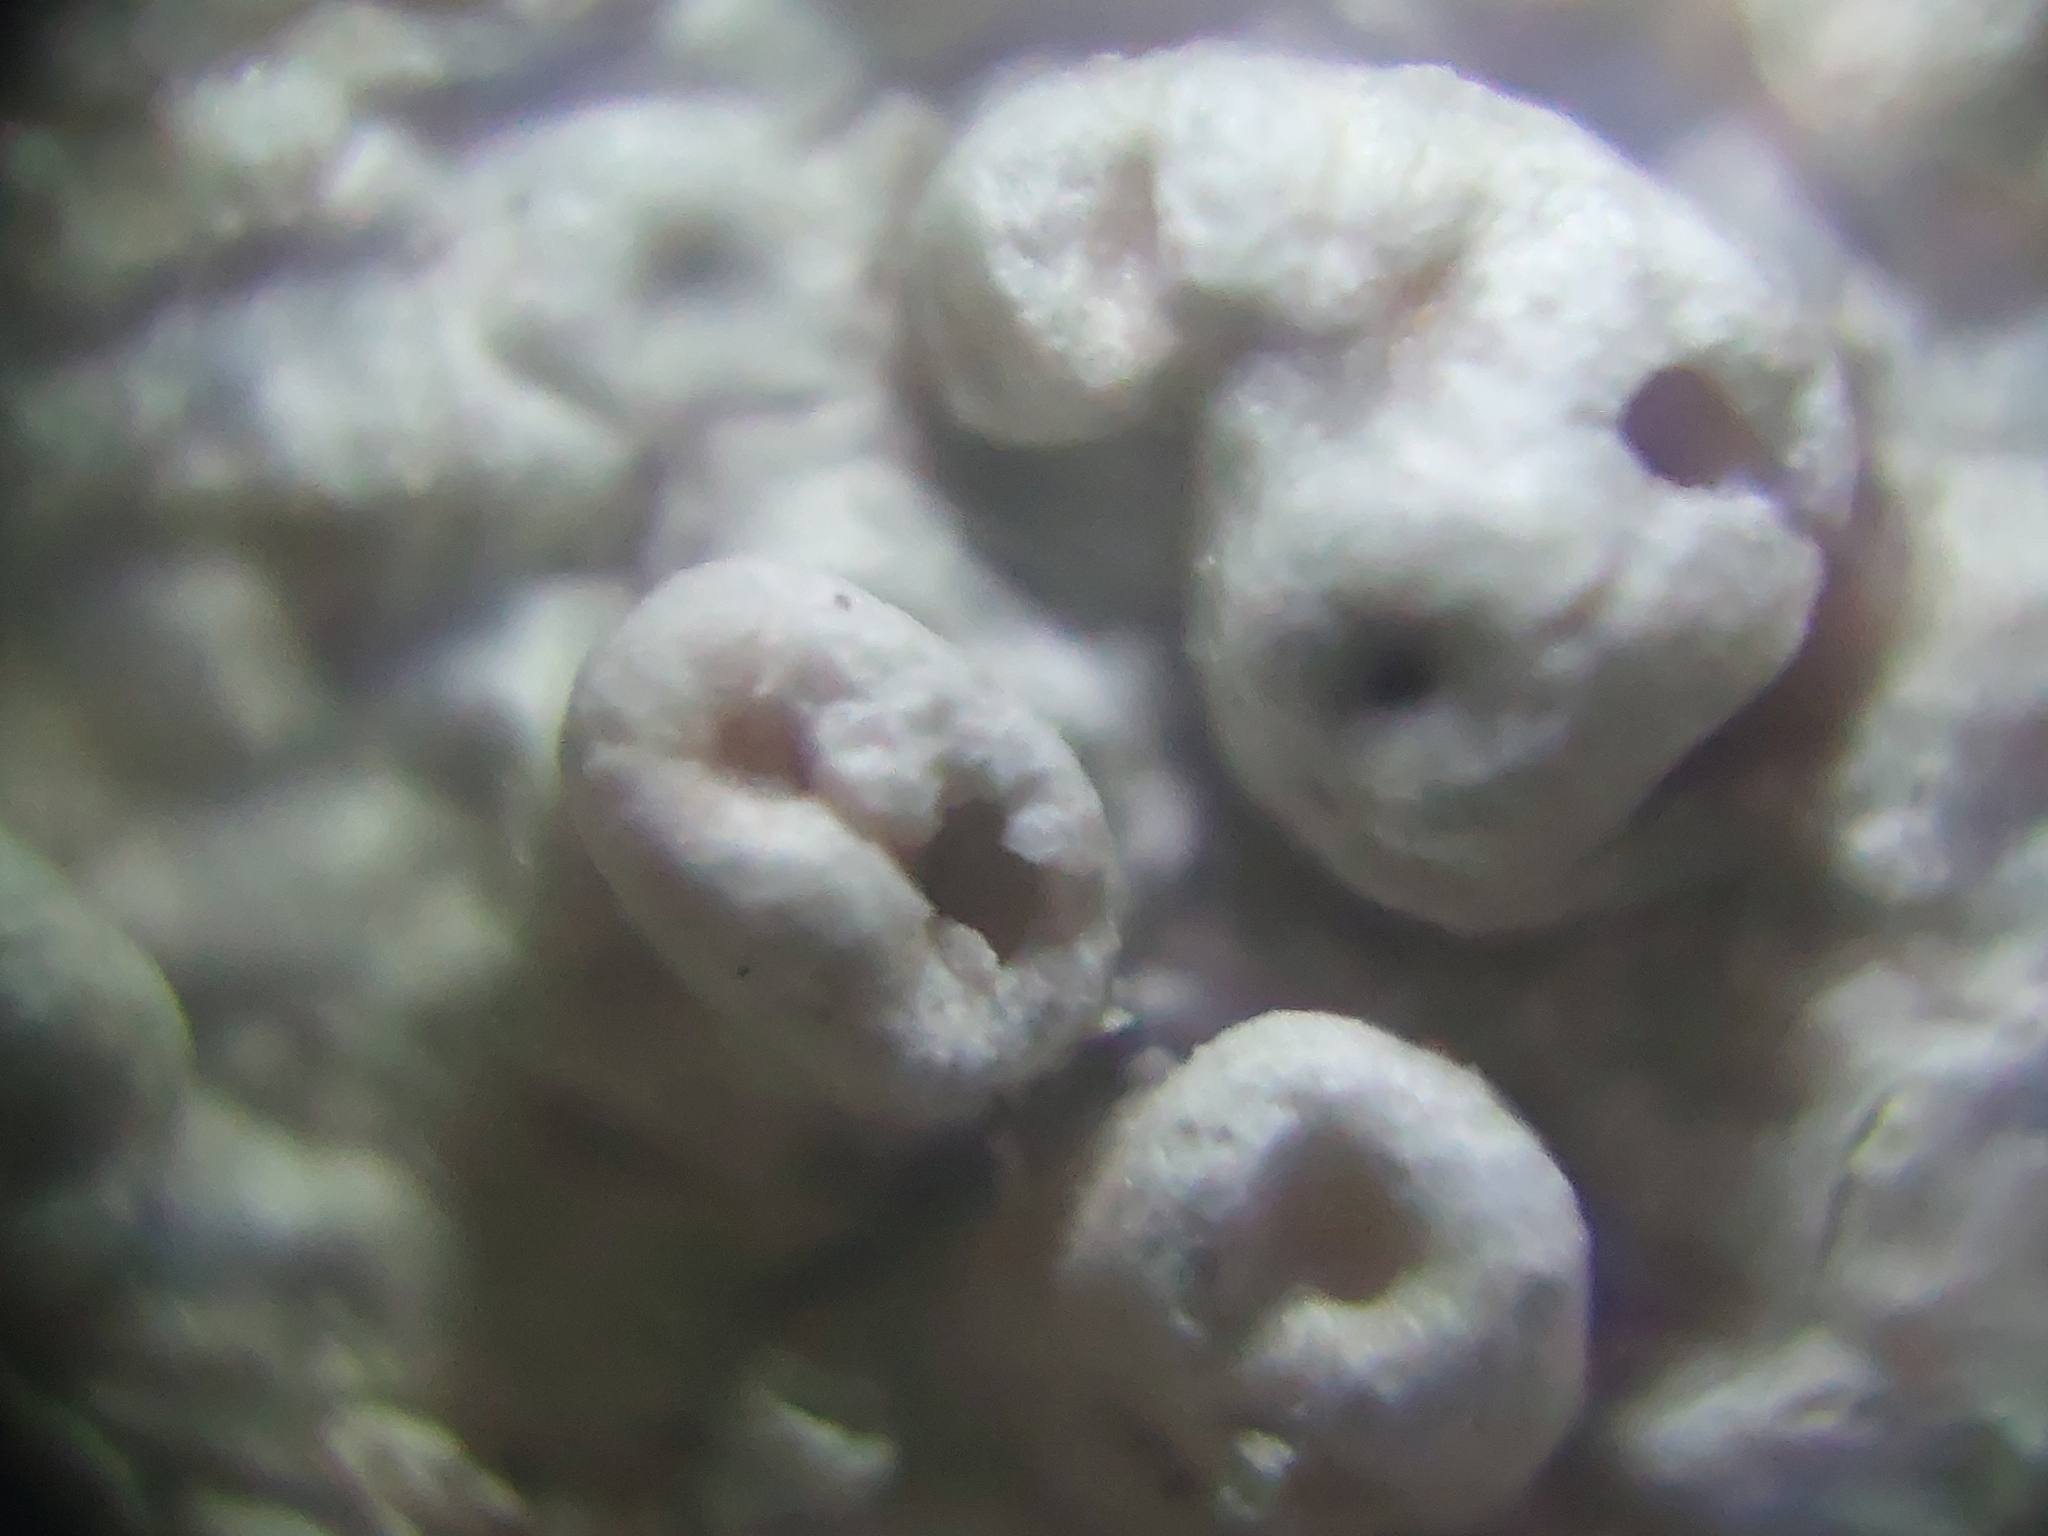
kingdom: Fungi
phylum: Ascomycota
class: Lecanoromycetes
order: Pertusariales
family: Pertusariaceae
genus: Pertusaria
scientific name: Pertusaria pertusa
